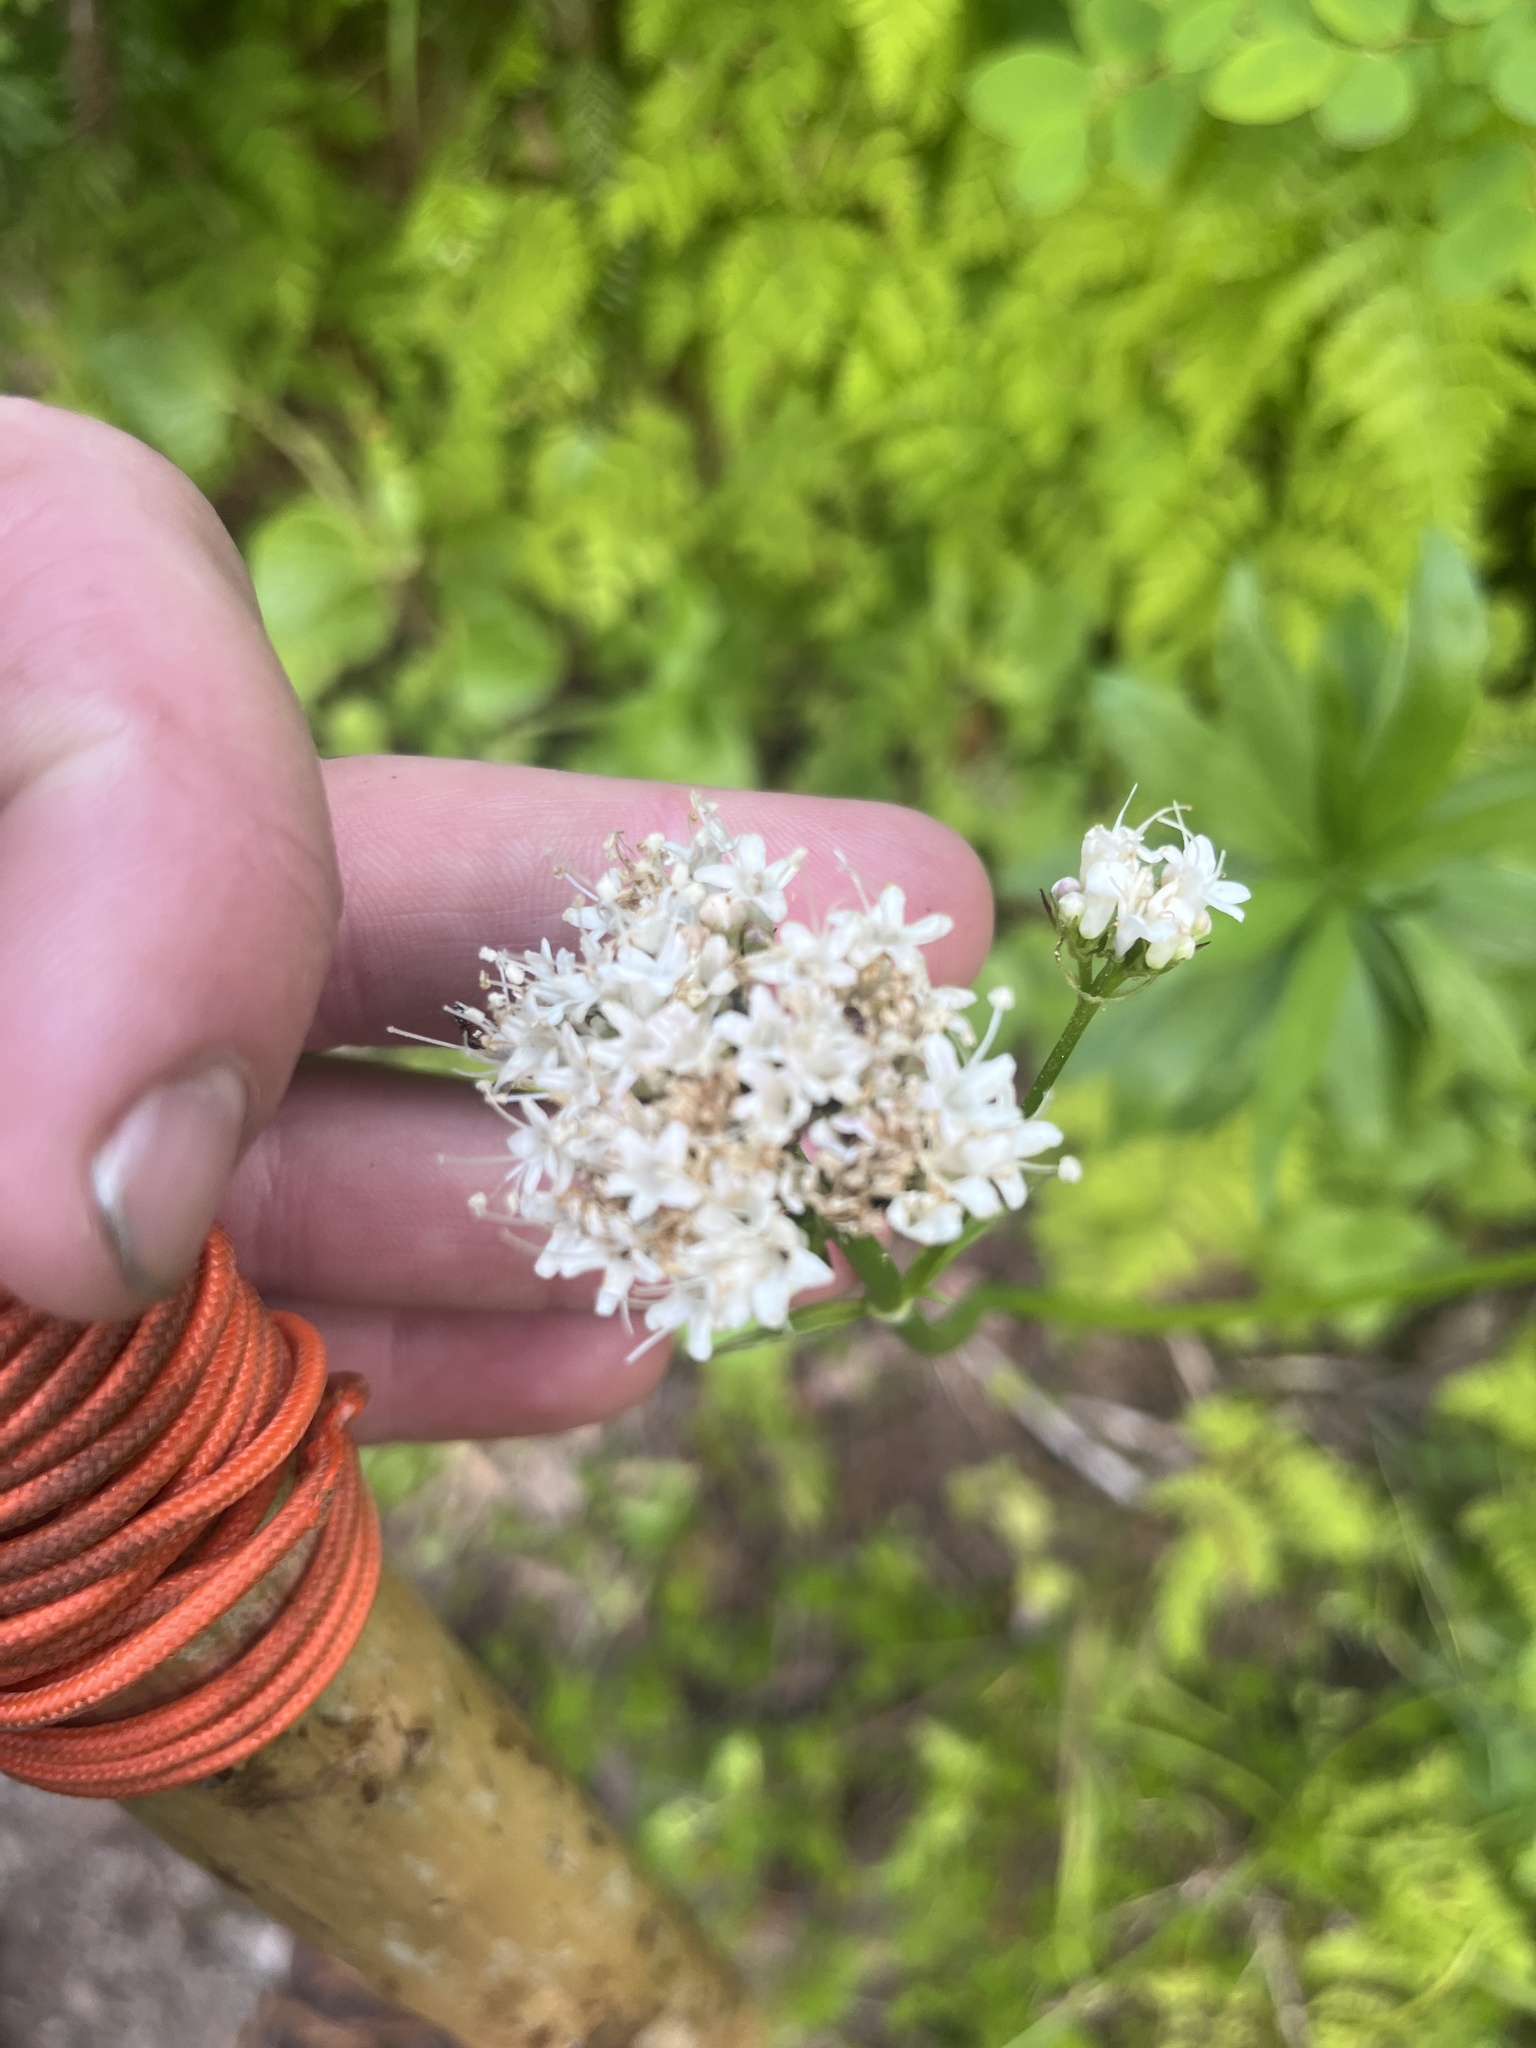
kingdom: Plantae
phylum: Tracheophyta
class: Magnoliopsida
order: Dipsacales
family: Caprifoliaceae
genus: Valeriana
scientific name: Valeriana sitchensis
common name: Pacific valerian
